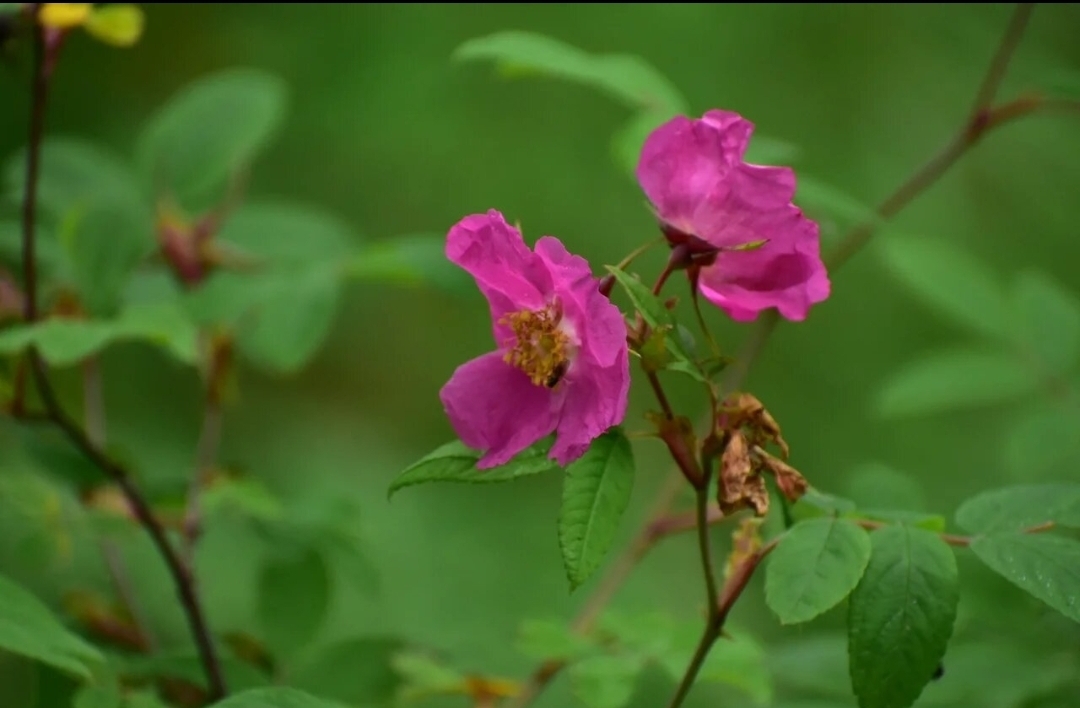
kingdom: Plantae
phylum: Tracheophyta
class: Magnoliopsida
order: Rosales
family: Rosaceae
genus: Rosa
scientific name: Rosa davurica
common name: Amur rose
